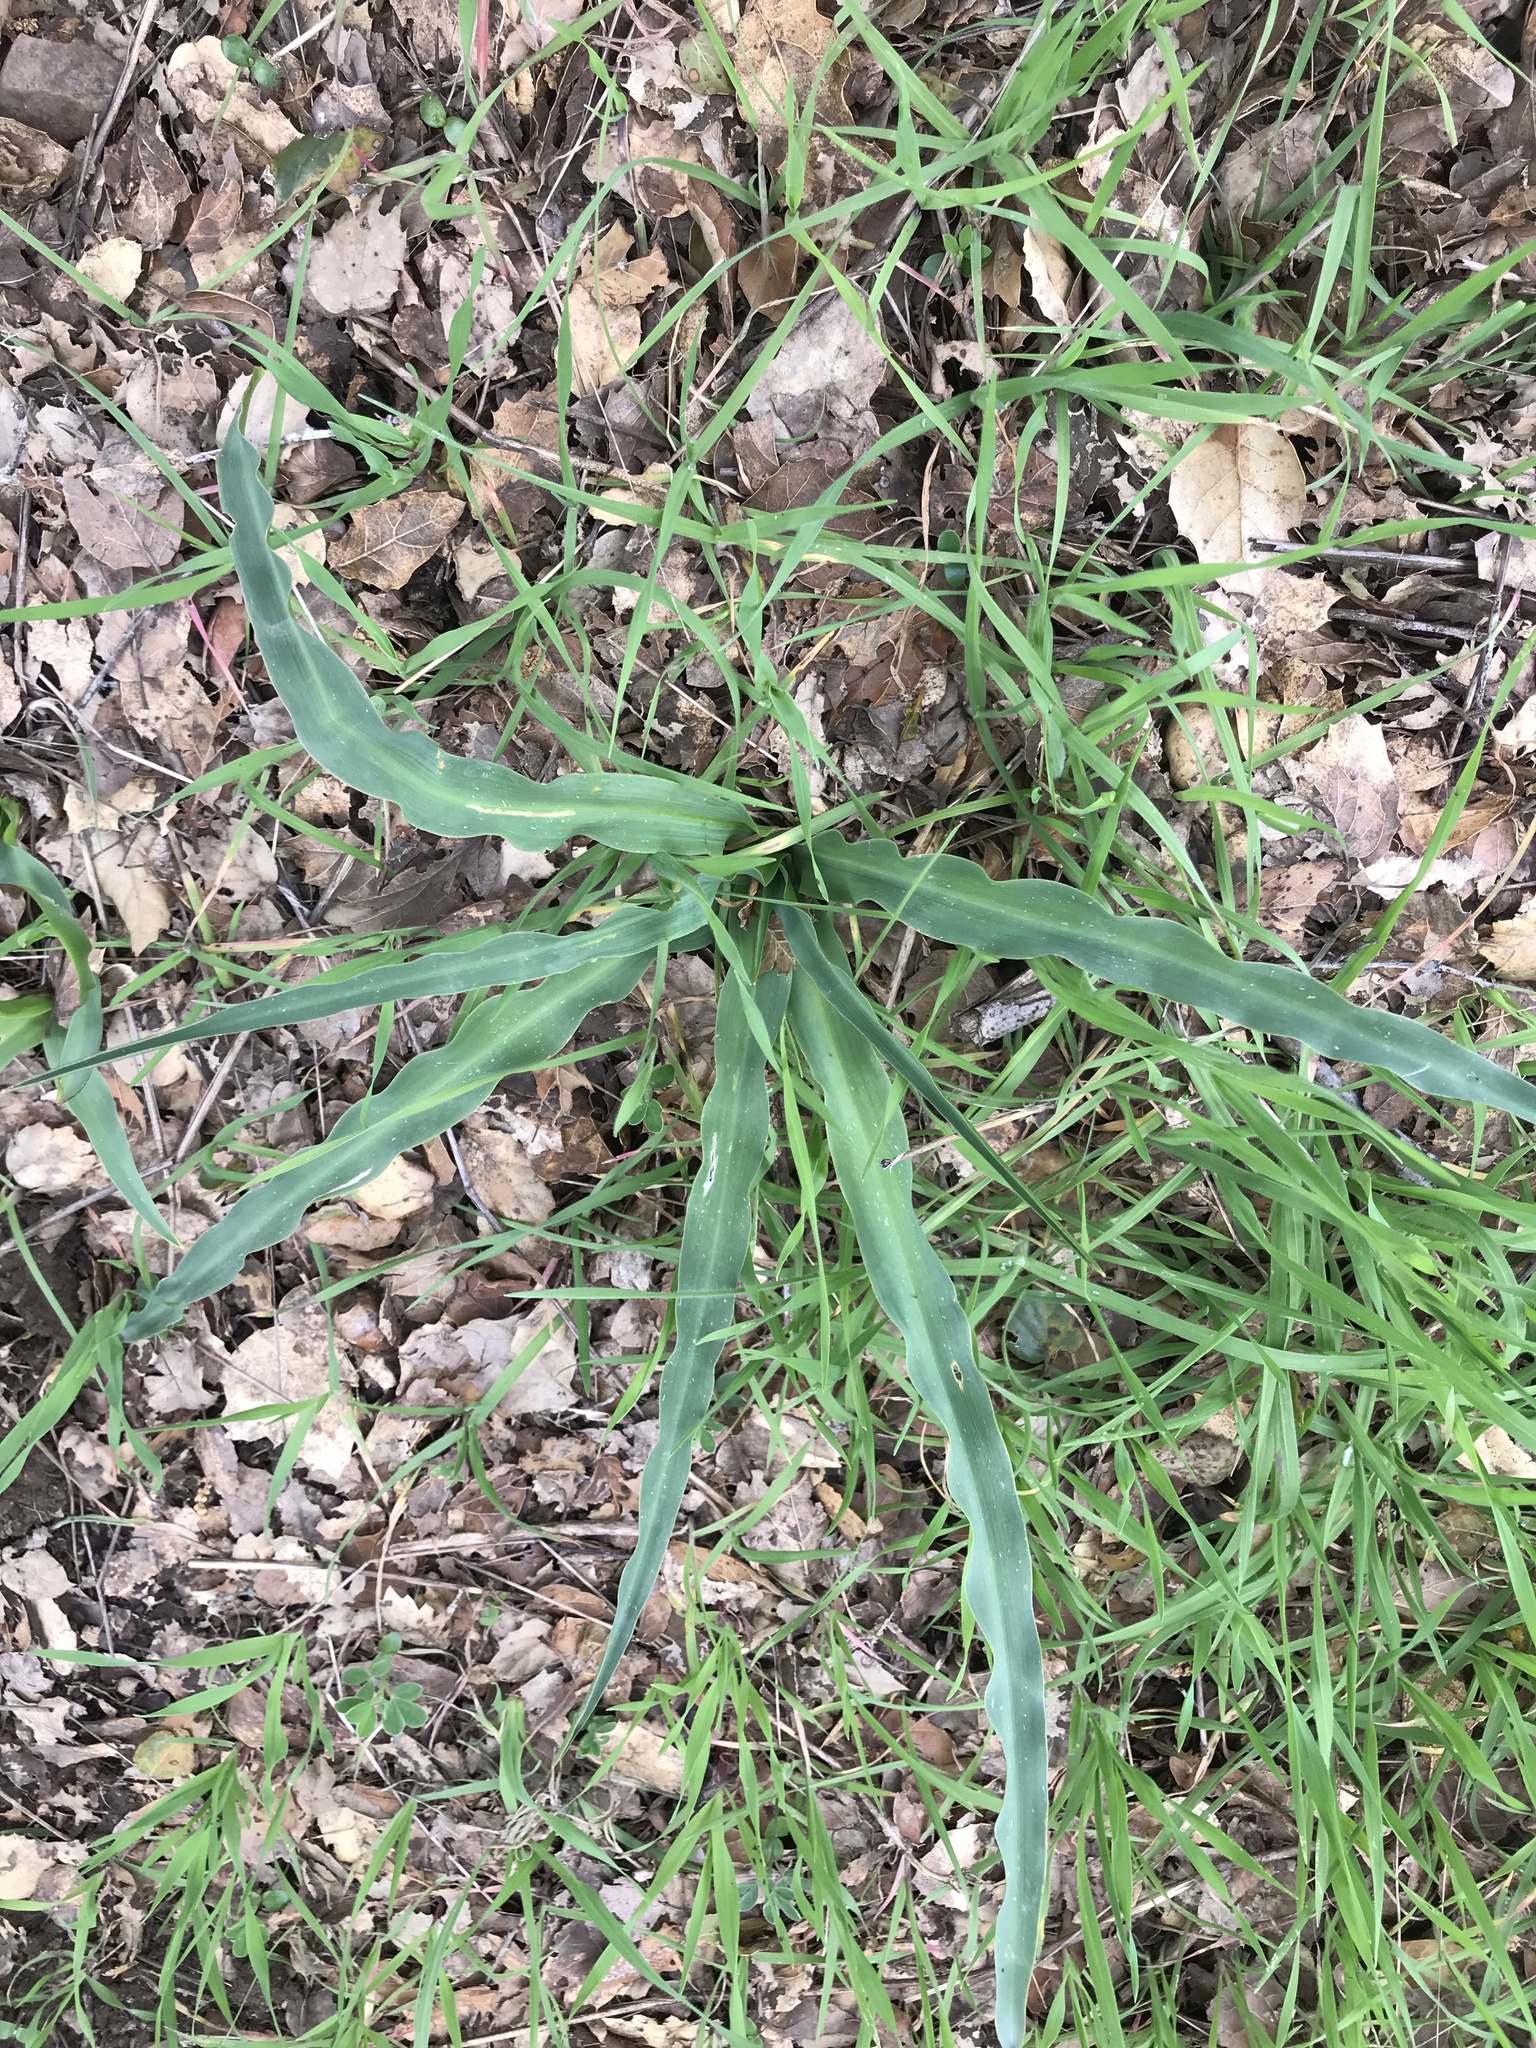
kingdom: Plantae
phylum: Tracheophyta
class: Liliopsida
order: Asparagales
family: Asparagaceae
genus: Chlorogalum
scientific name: Chlorogalum pomeridianum
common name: Amole
